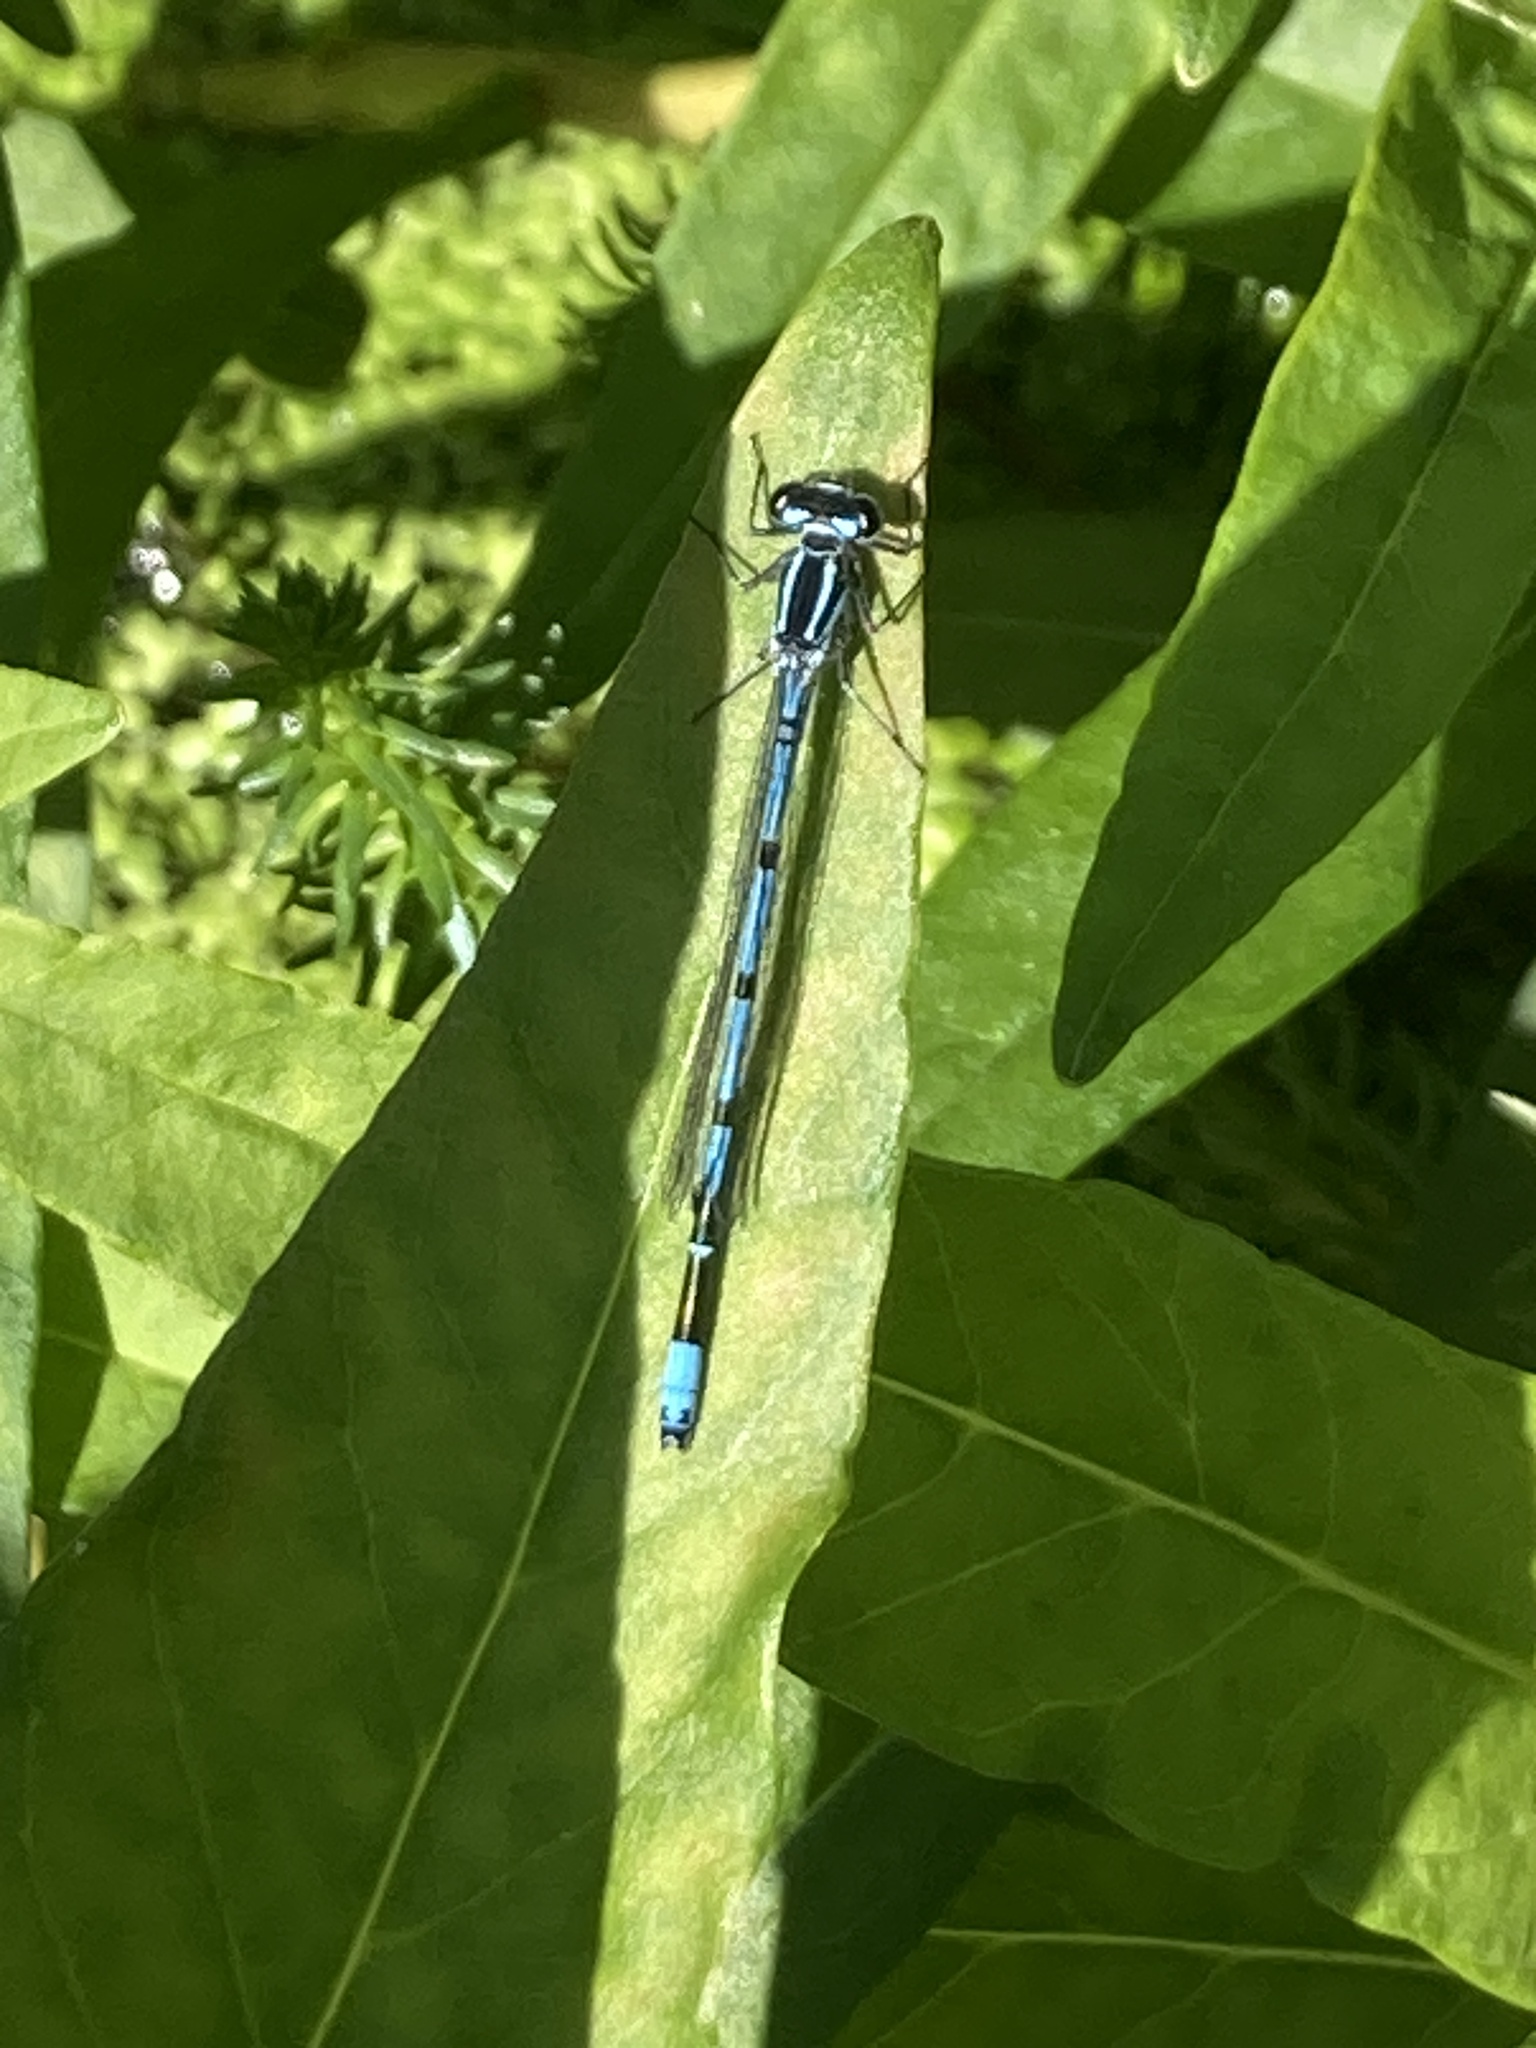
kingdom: Animalia
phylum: Arthropoda
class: Insecta
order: Odonata
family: Coenagrionidae
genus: Coenagrion
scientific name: Coenagrion puella
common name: Azure damselfly
